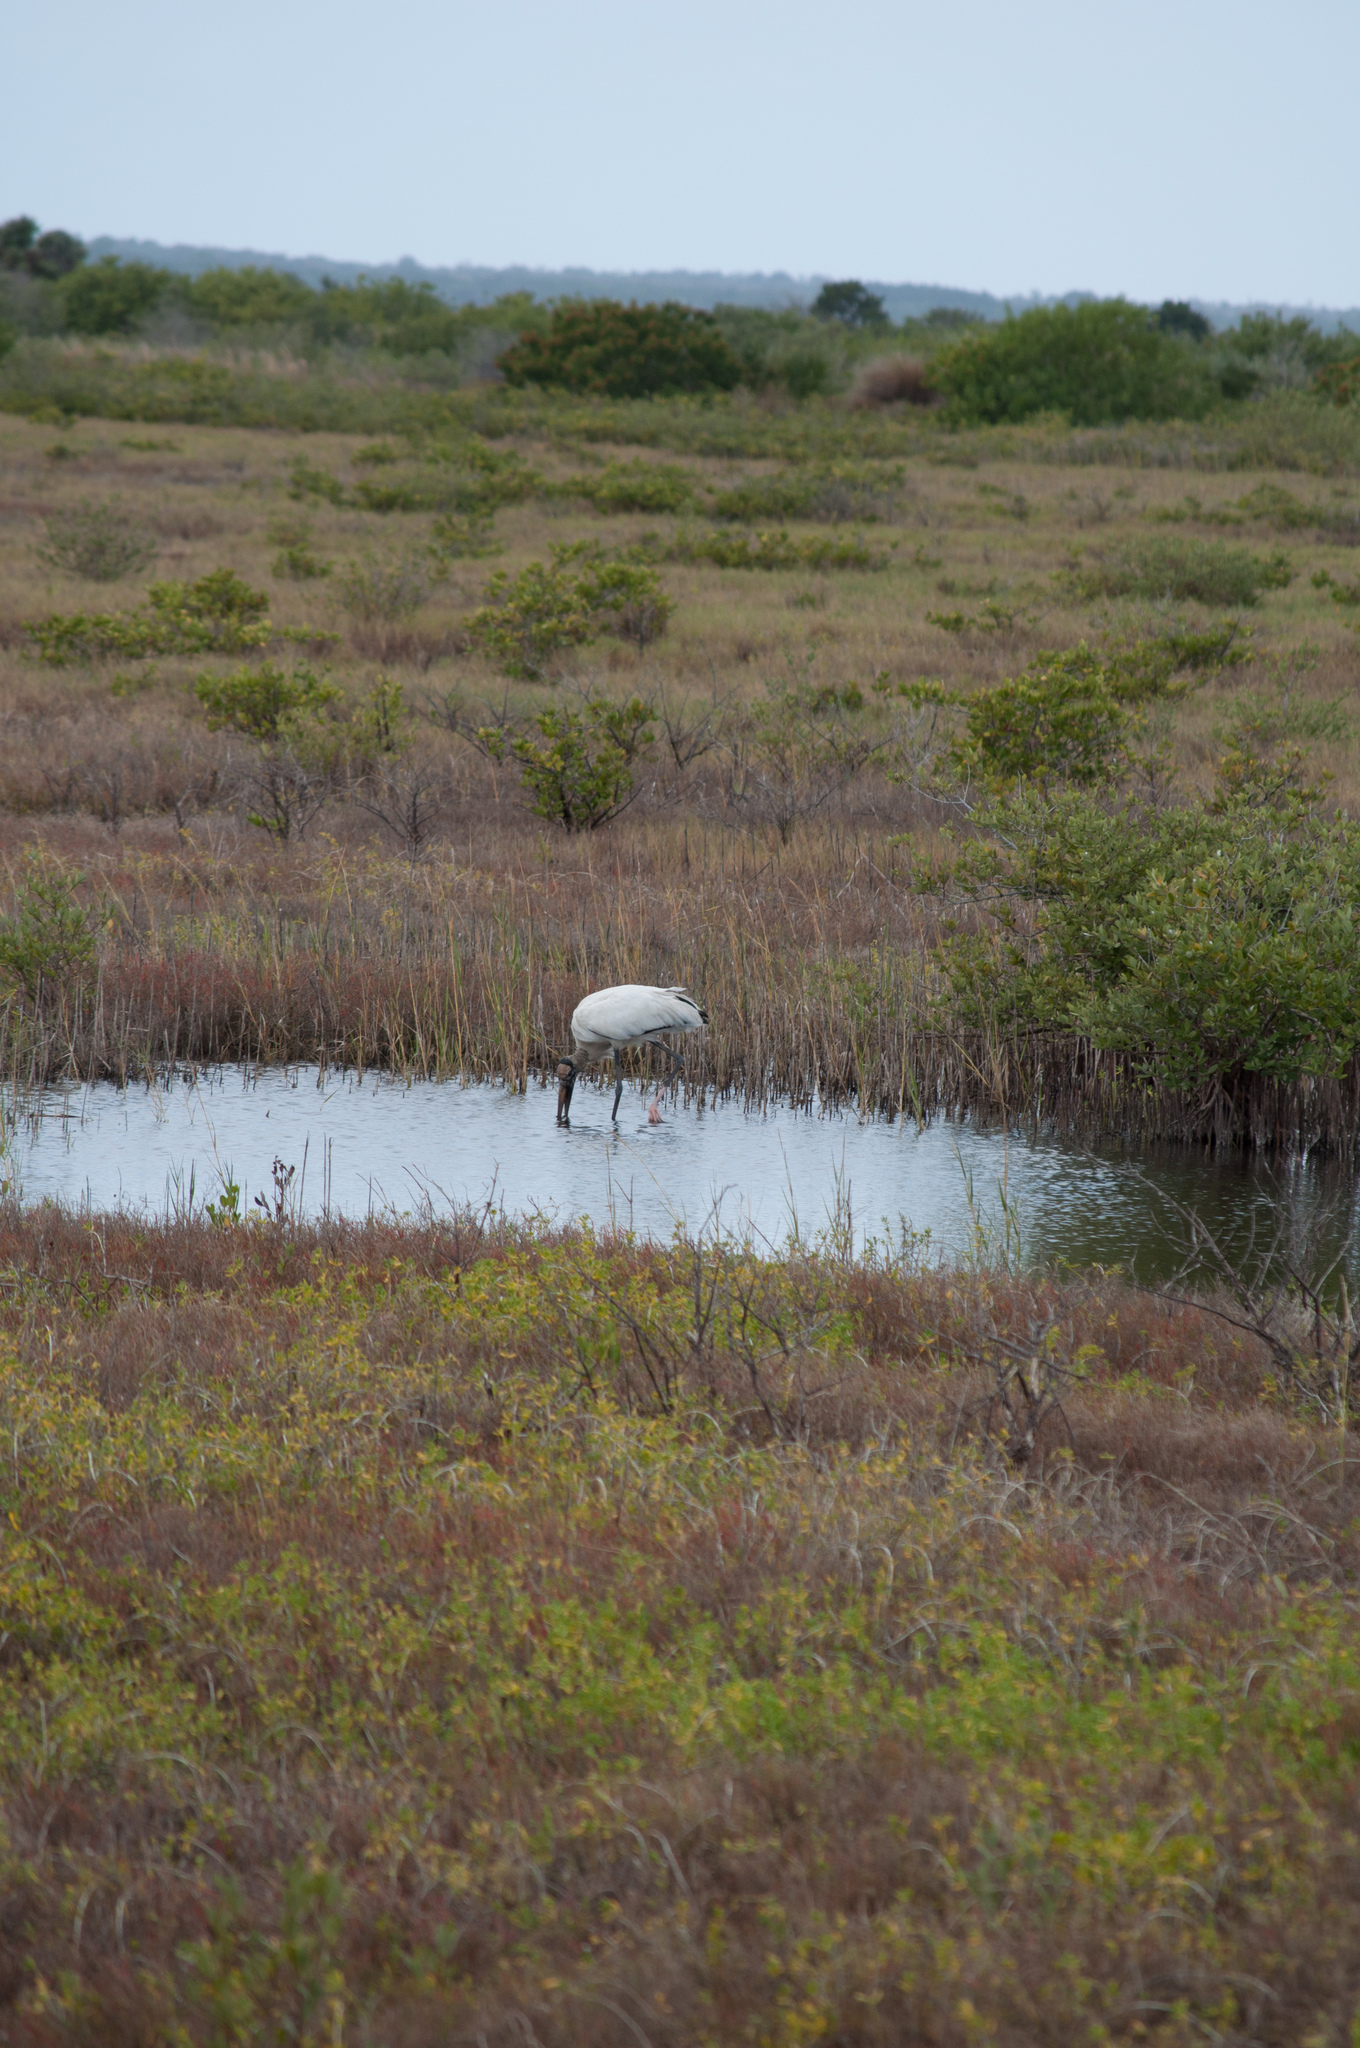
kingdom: Animalia
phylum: Chordata
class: Aves
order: Ciconiiformes
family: Ciconiidae
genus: Mycteria
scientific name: Mycteria americana
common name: Wood stork
